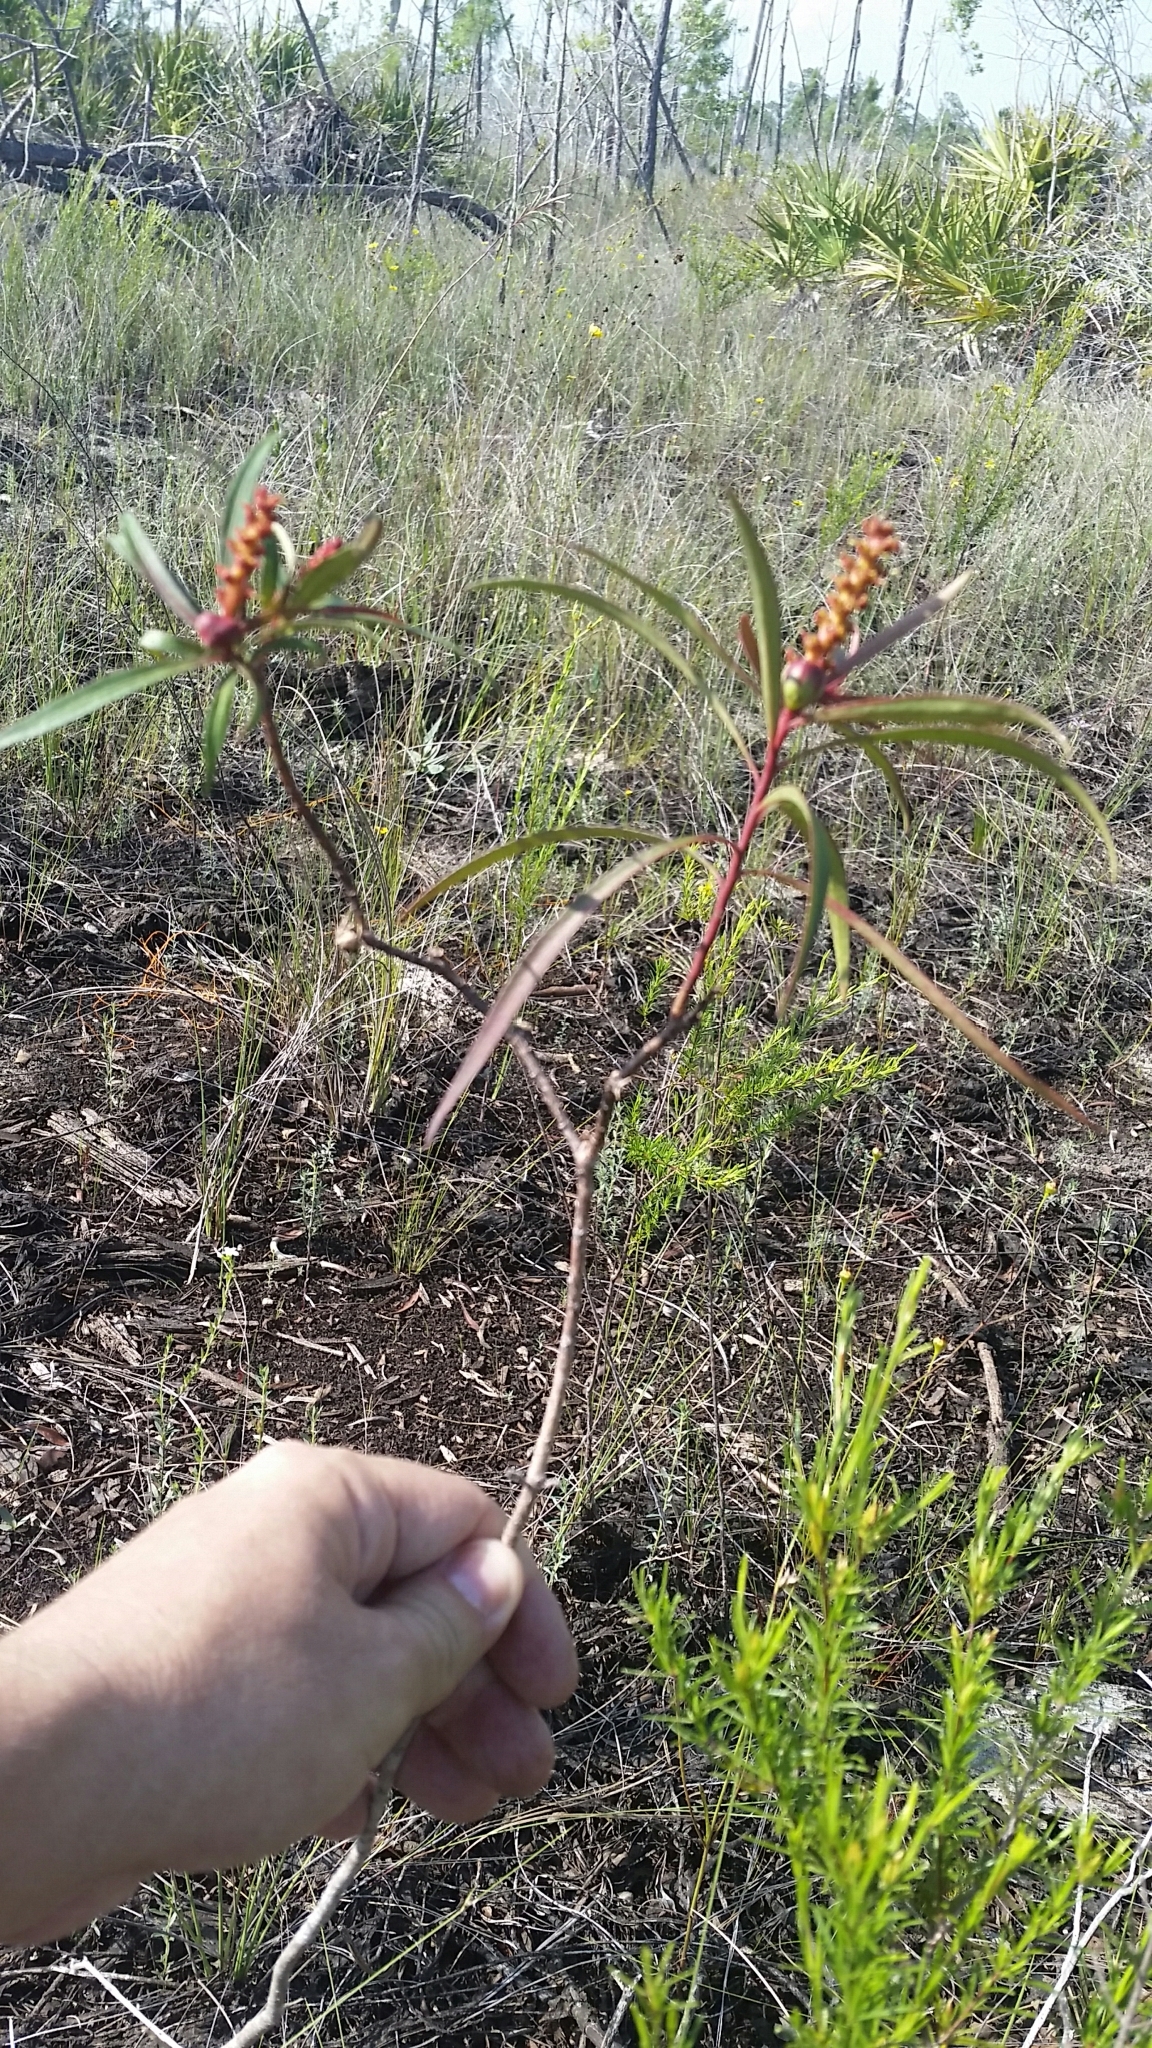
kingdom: Plantae
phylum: Tracheophyta
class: Magnoliopsida
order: Malpighiales
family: Euphorbiaceae
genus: Stillingia
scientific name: Stillingia aquatica
